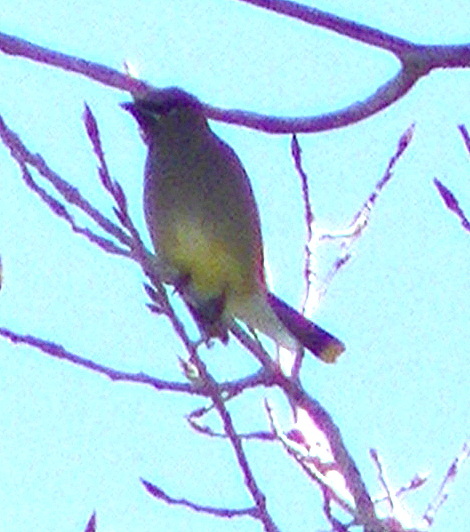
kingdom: Animalia
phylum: Chordata
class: Aves
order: Passeriformes
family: Bombycillidae
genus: Bombycilla
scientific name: Bombycilla cedrorum
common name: Cedar waxwing
